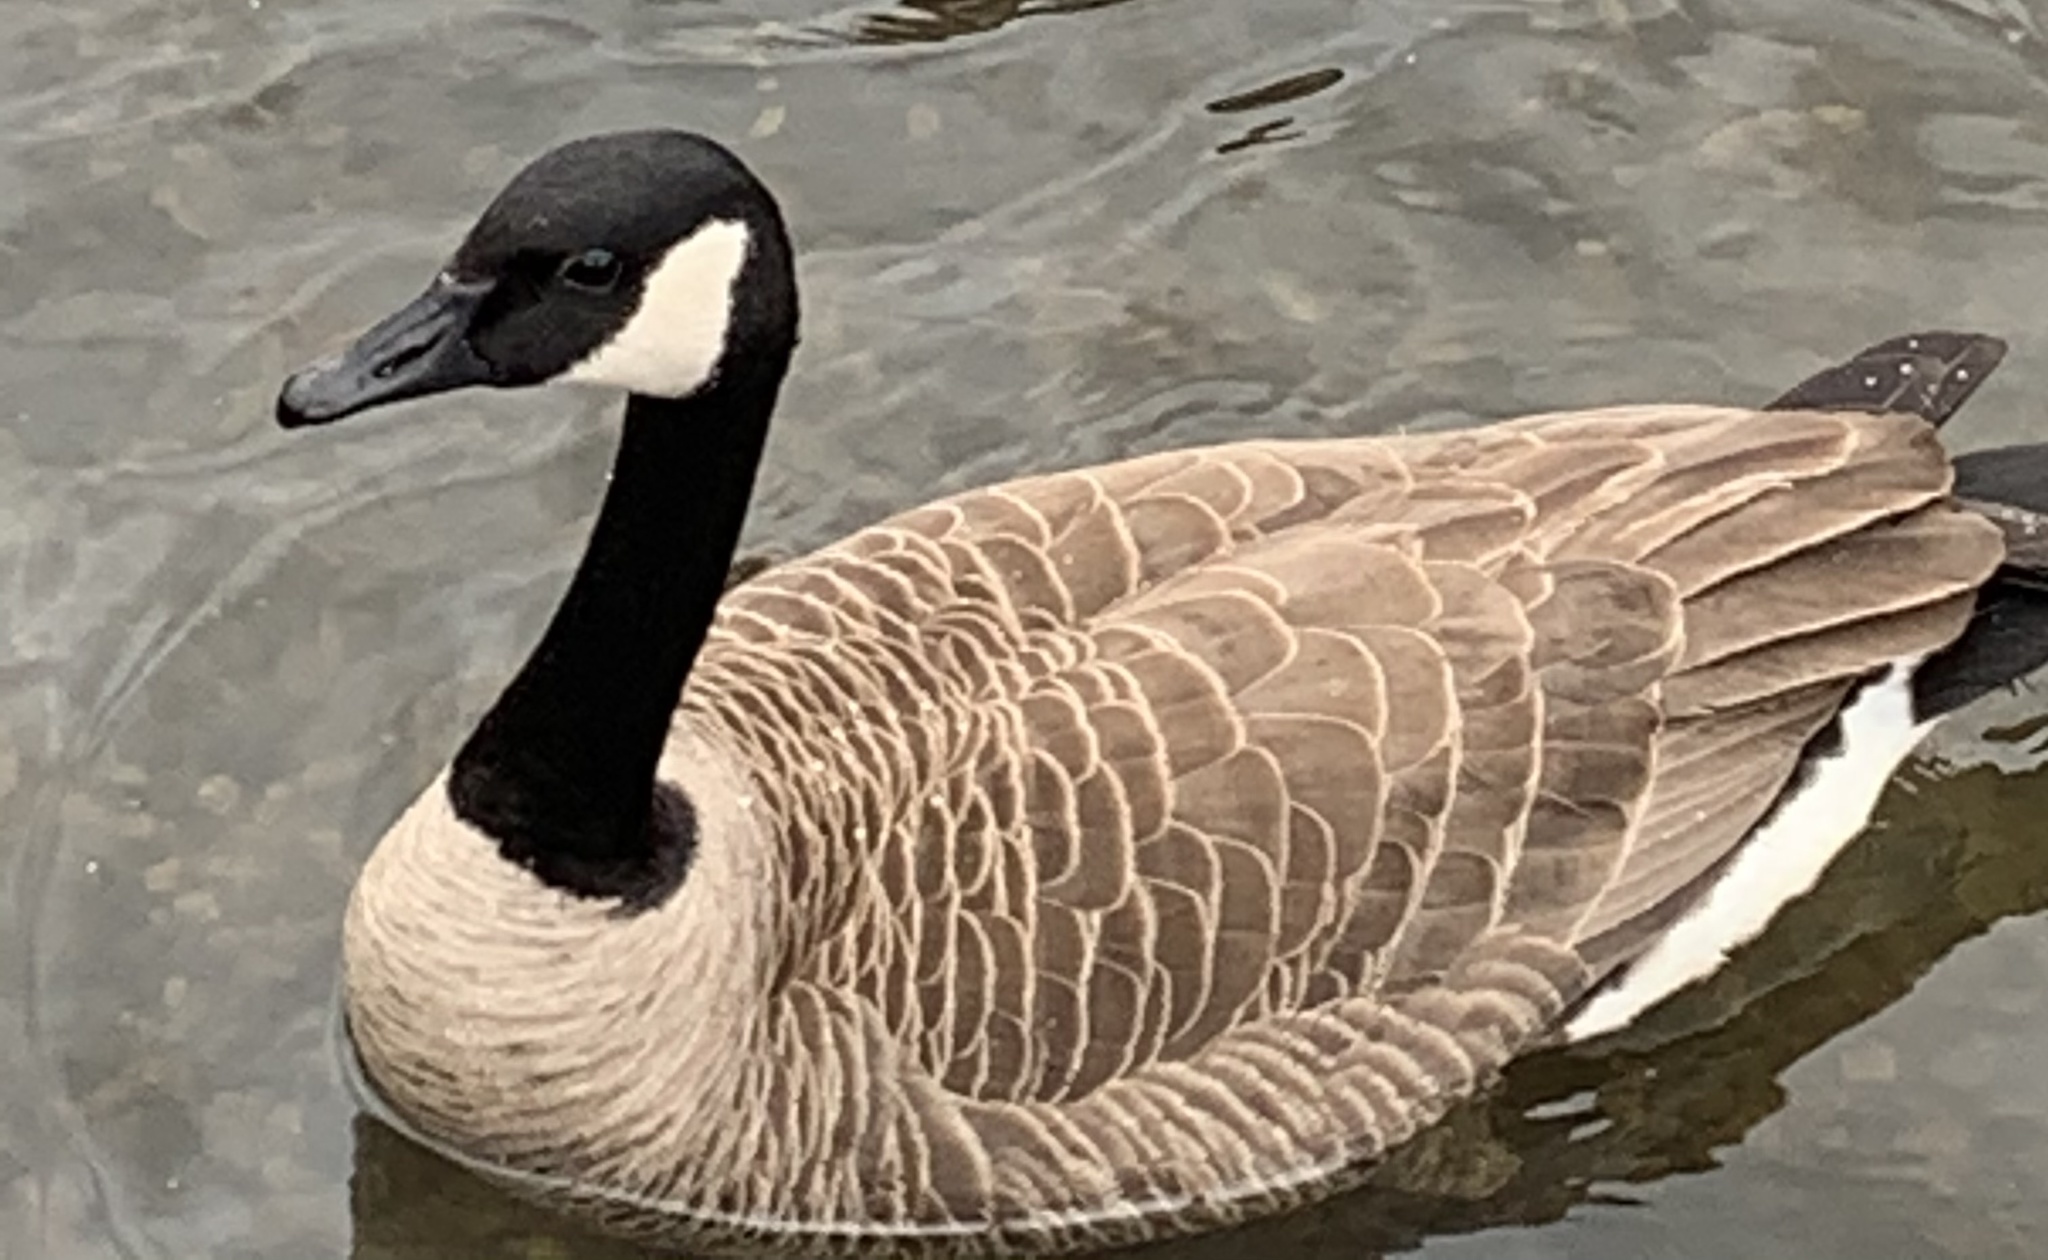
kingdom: Animalia
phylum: Chordata
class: Aves
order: Anseriformes
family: Anatidae
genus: Branta
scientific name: Branta canadensis
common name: Canada goose
